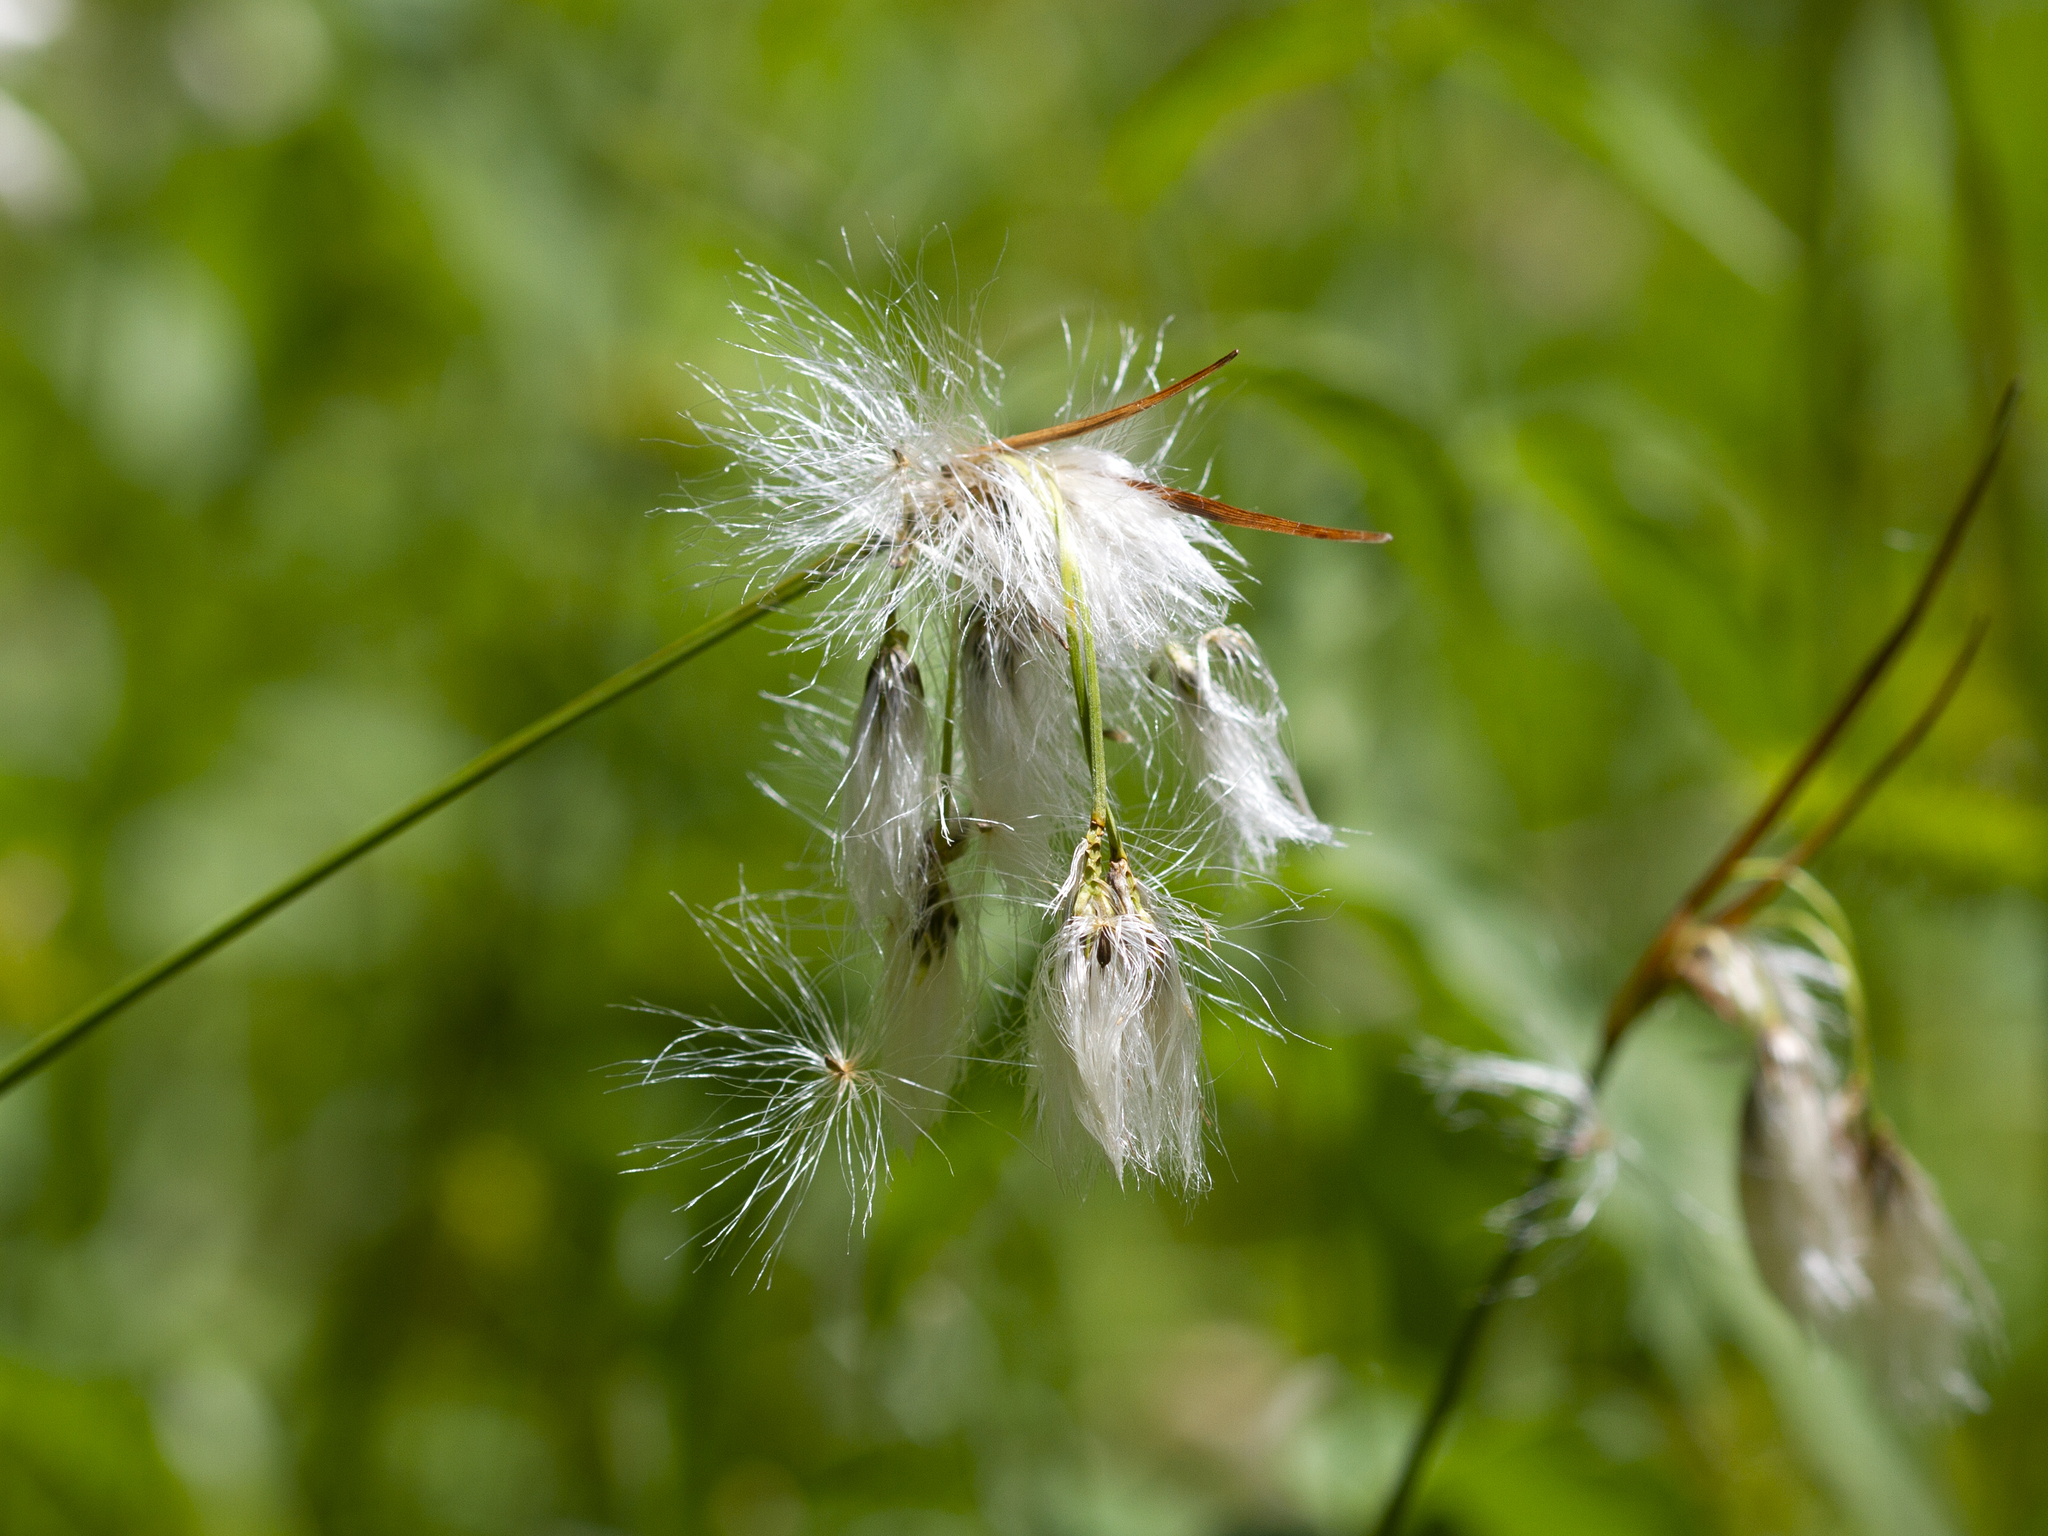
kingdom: Plantae
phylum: Tracheophyta
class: Liliopsida
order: Poales
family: Cyperaceae
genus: Eriophorum
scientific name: Eriophorum viridicarinatum
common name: Green-keeled cottongrass
